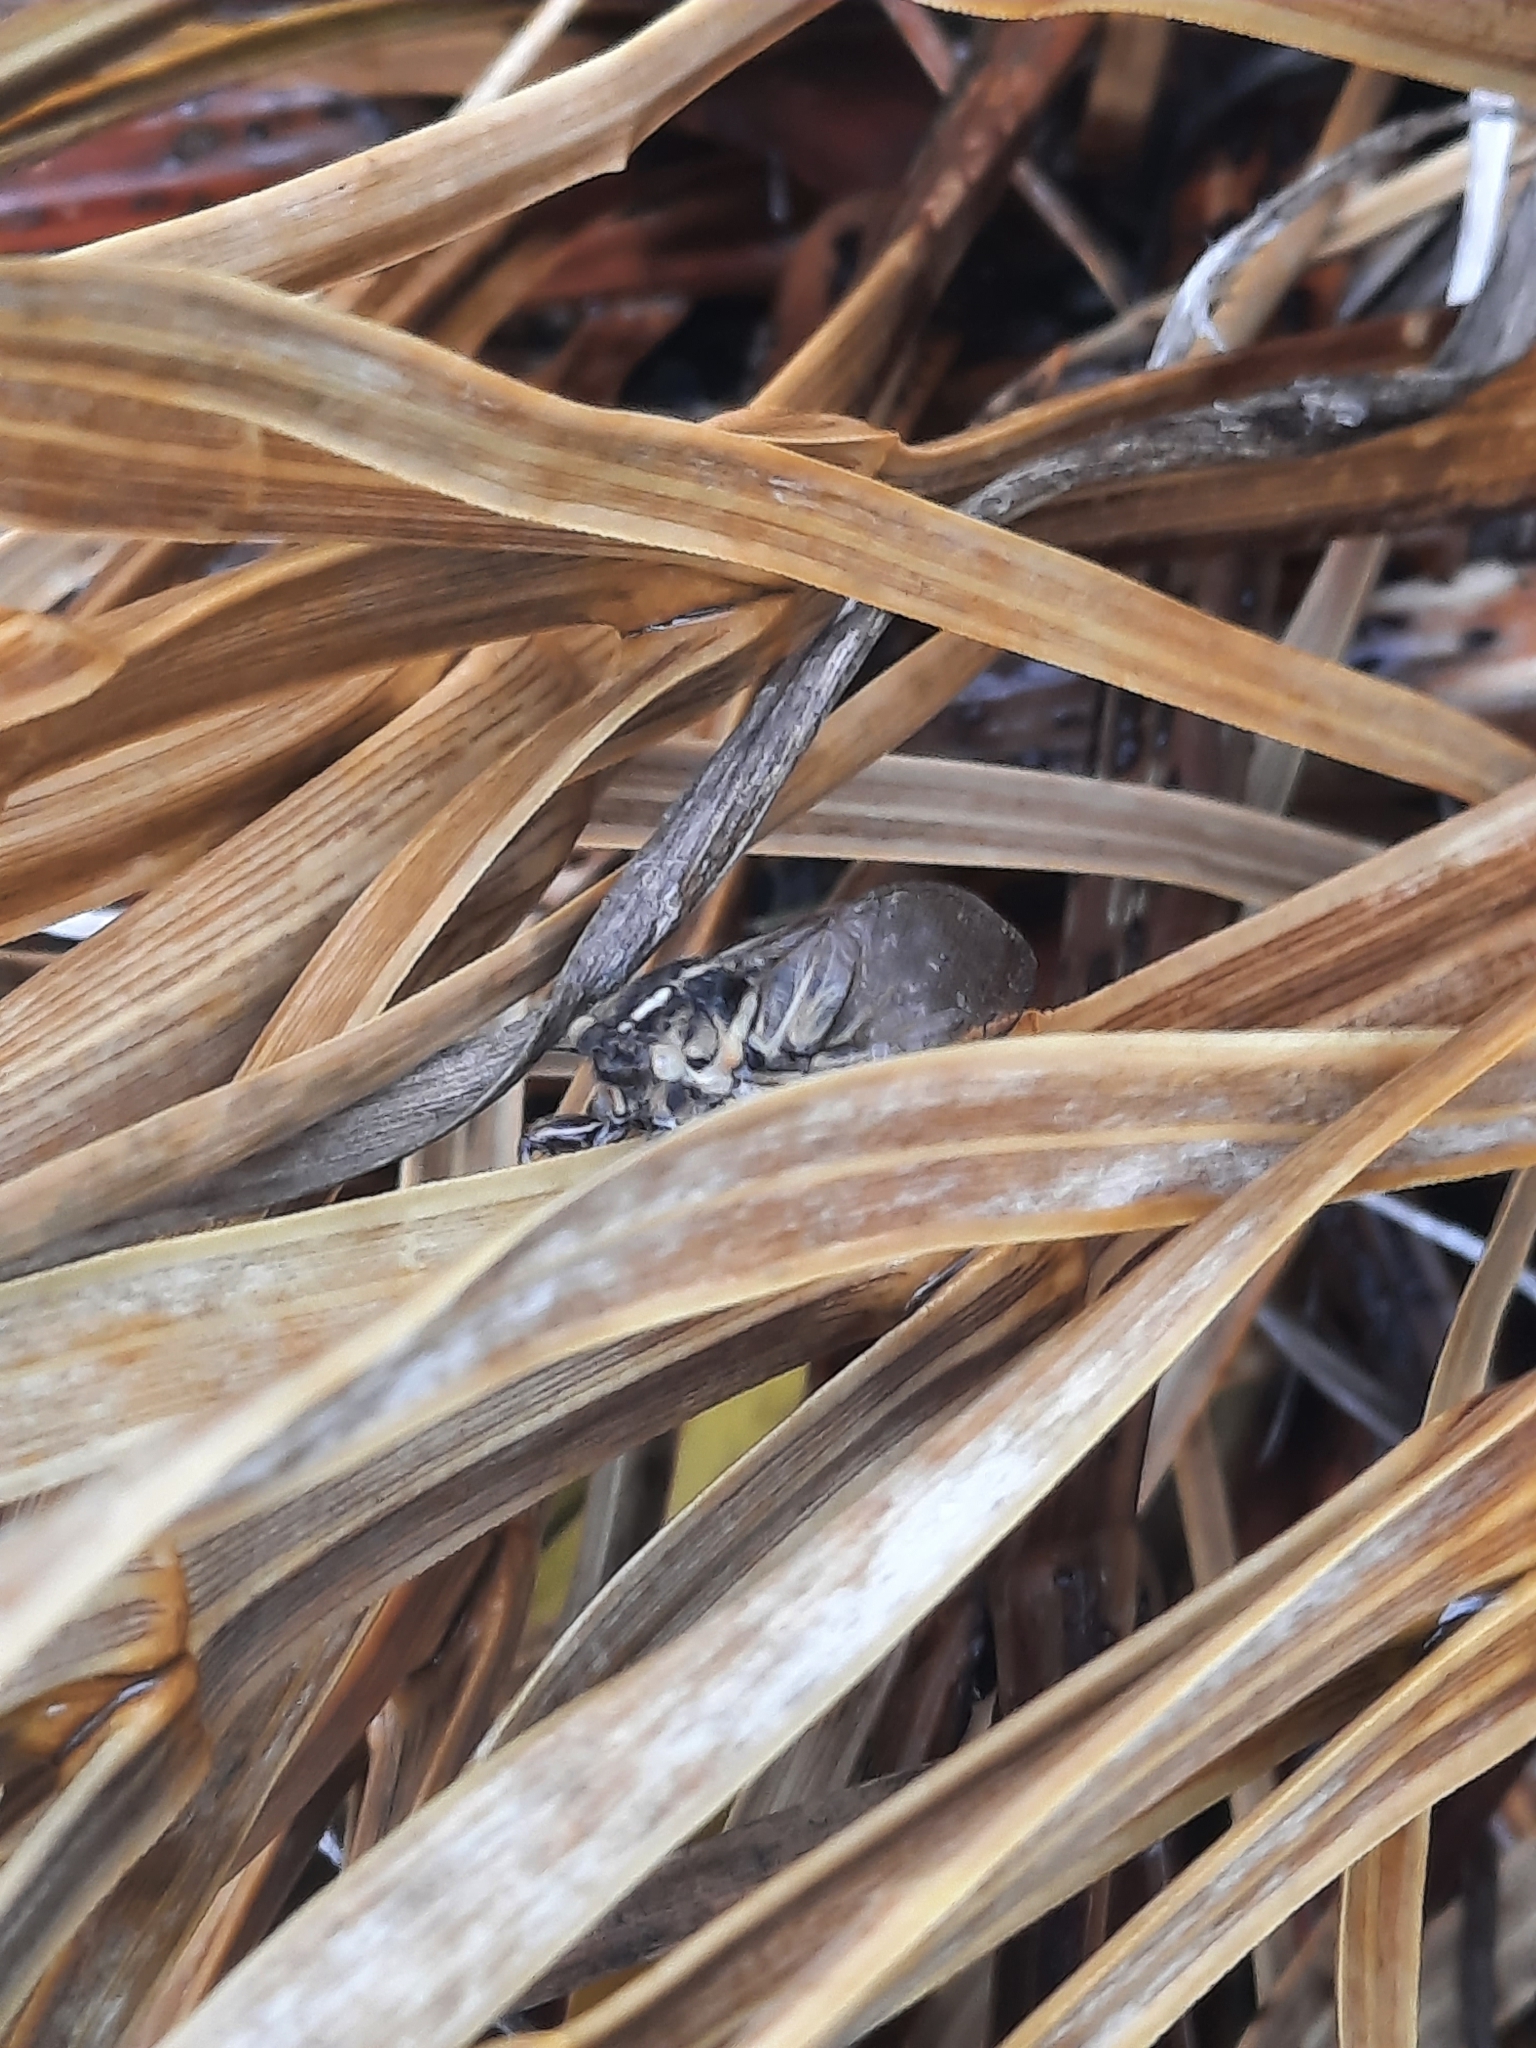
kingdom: Animalia
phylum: Arthropoda
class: Insecta
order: Hemiptera
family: Cicadidae
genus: Kikihia
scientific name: Kikihia angusta
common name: Tussock cicada
